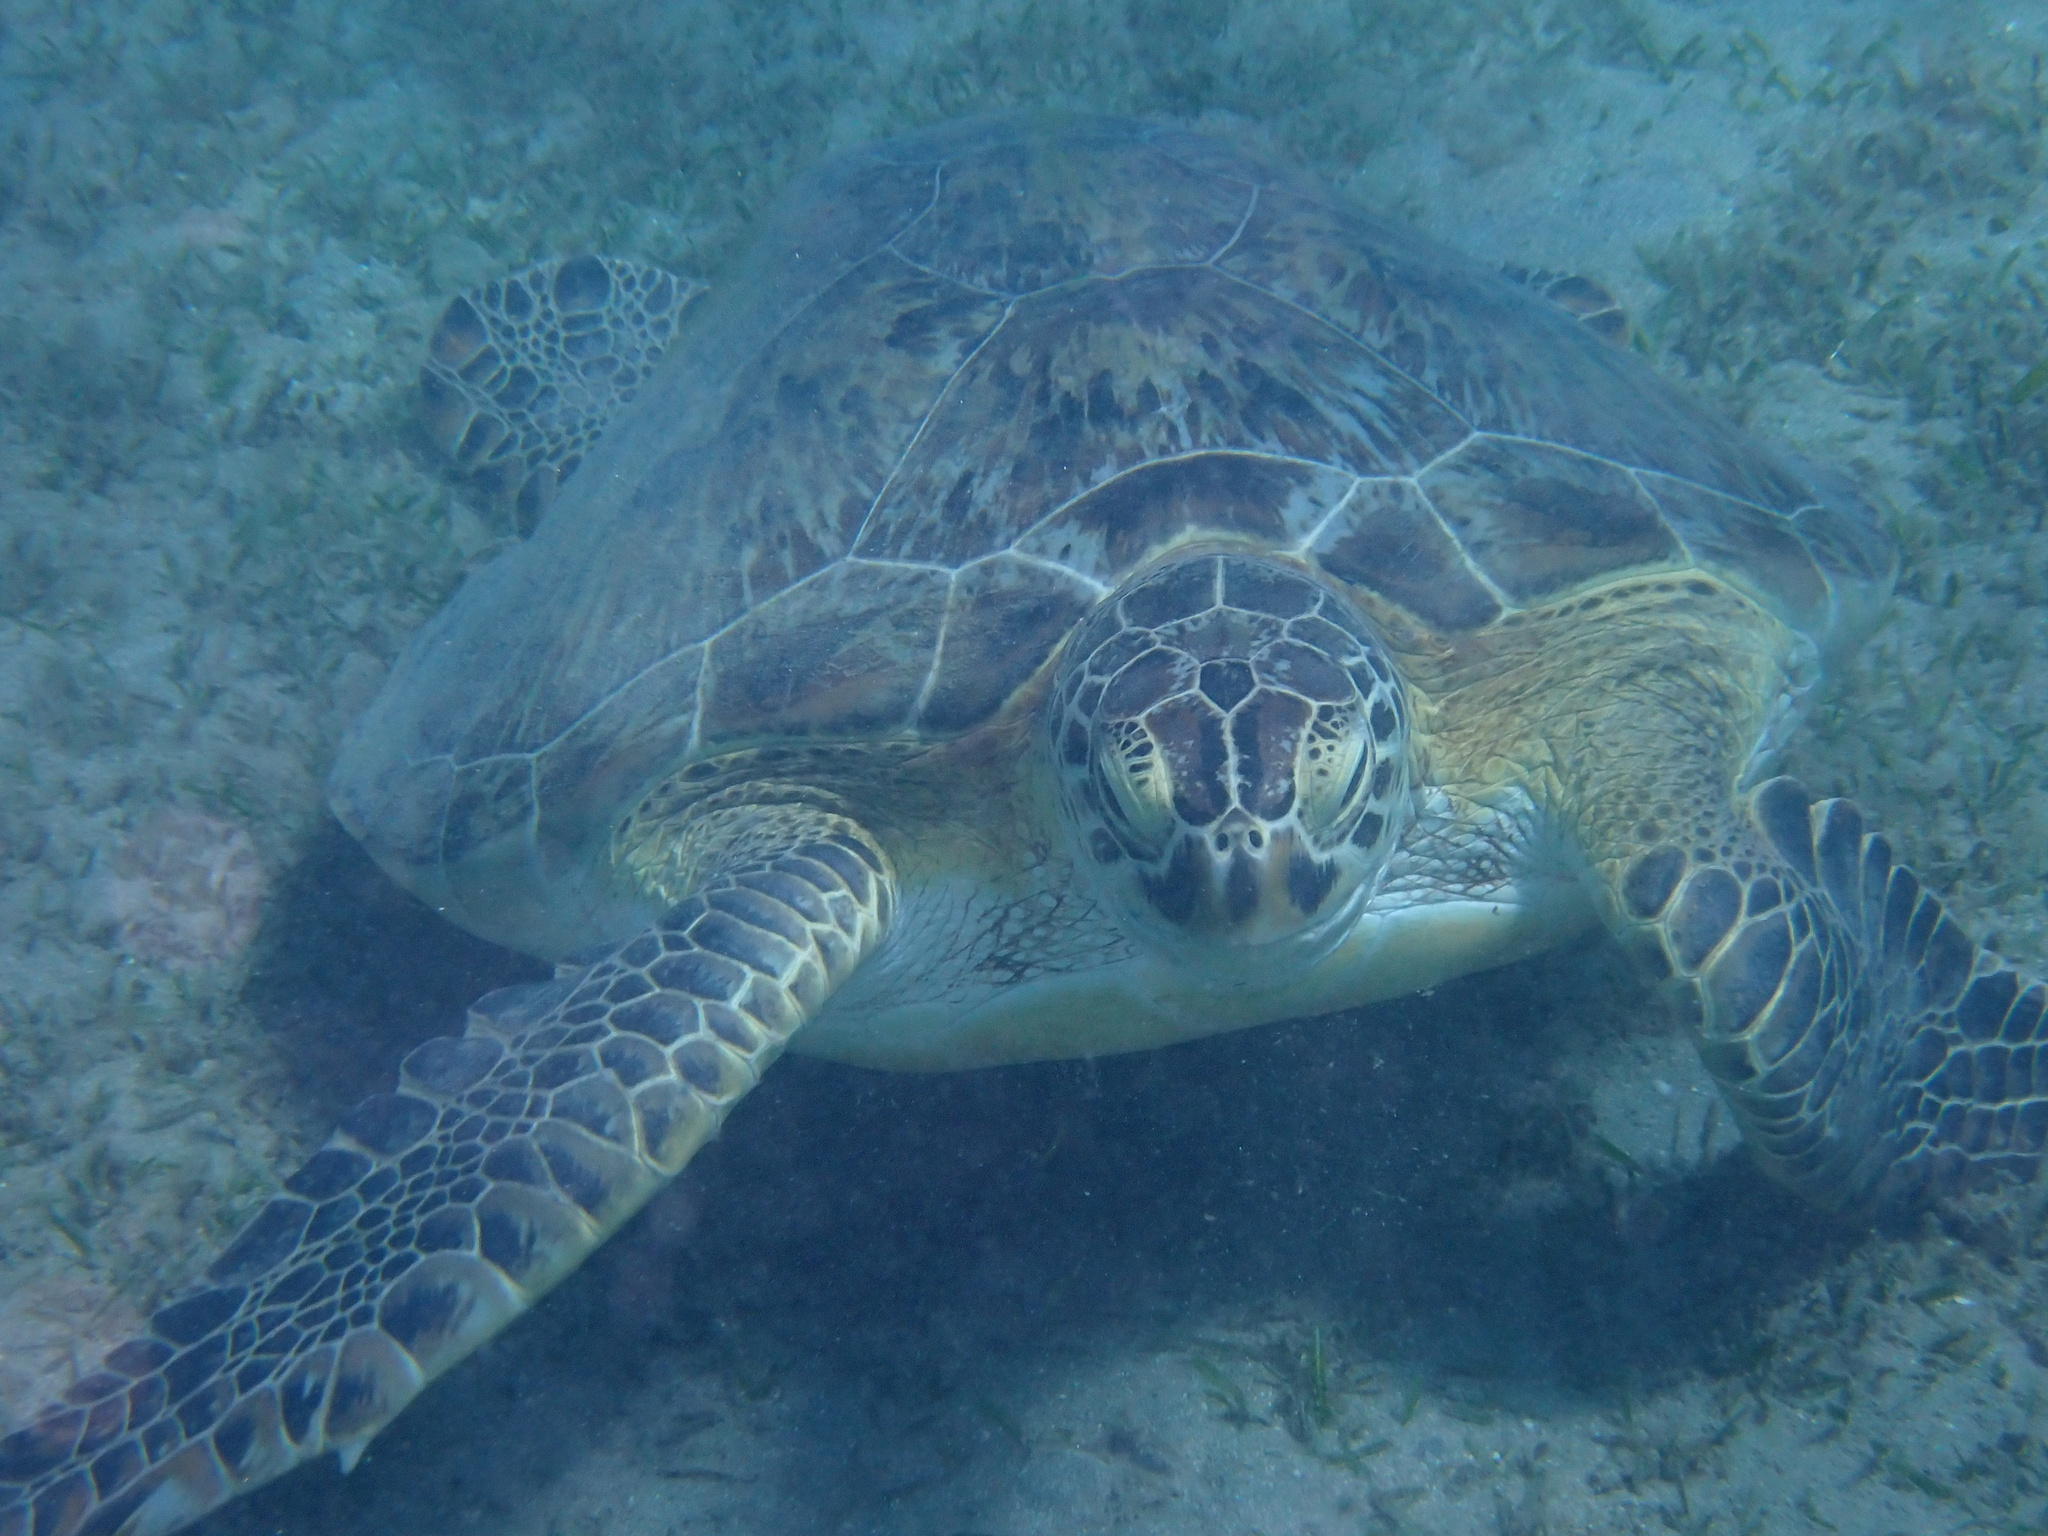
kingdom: Animalia
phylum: Chordata
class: Testudines
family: Cheloniidae
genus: Chelonia
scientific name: Chelonia mydas
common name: Green turtle
